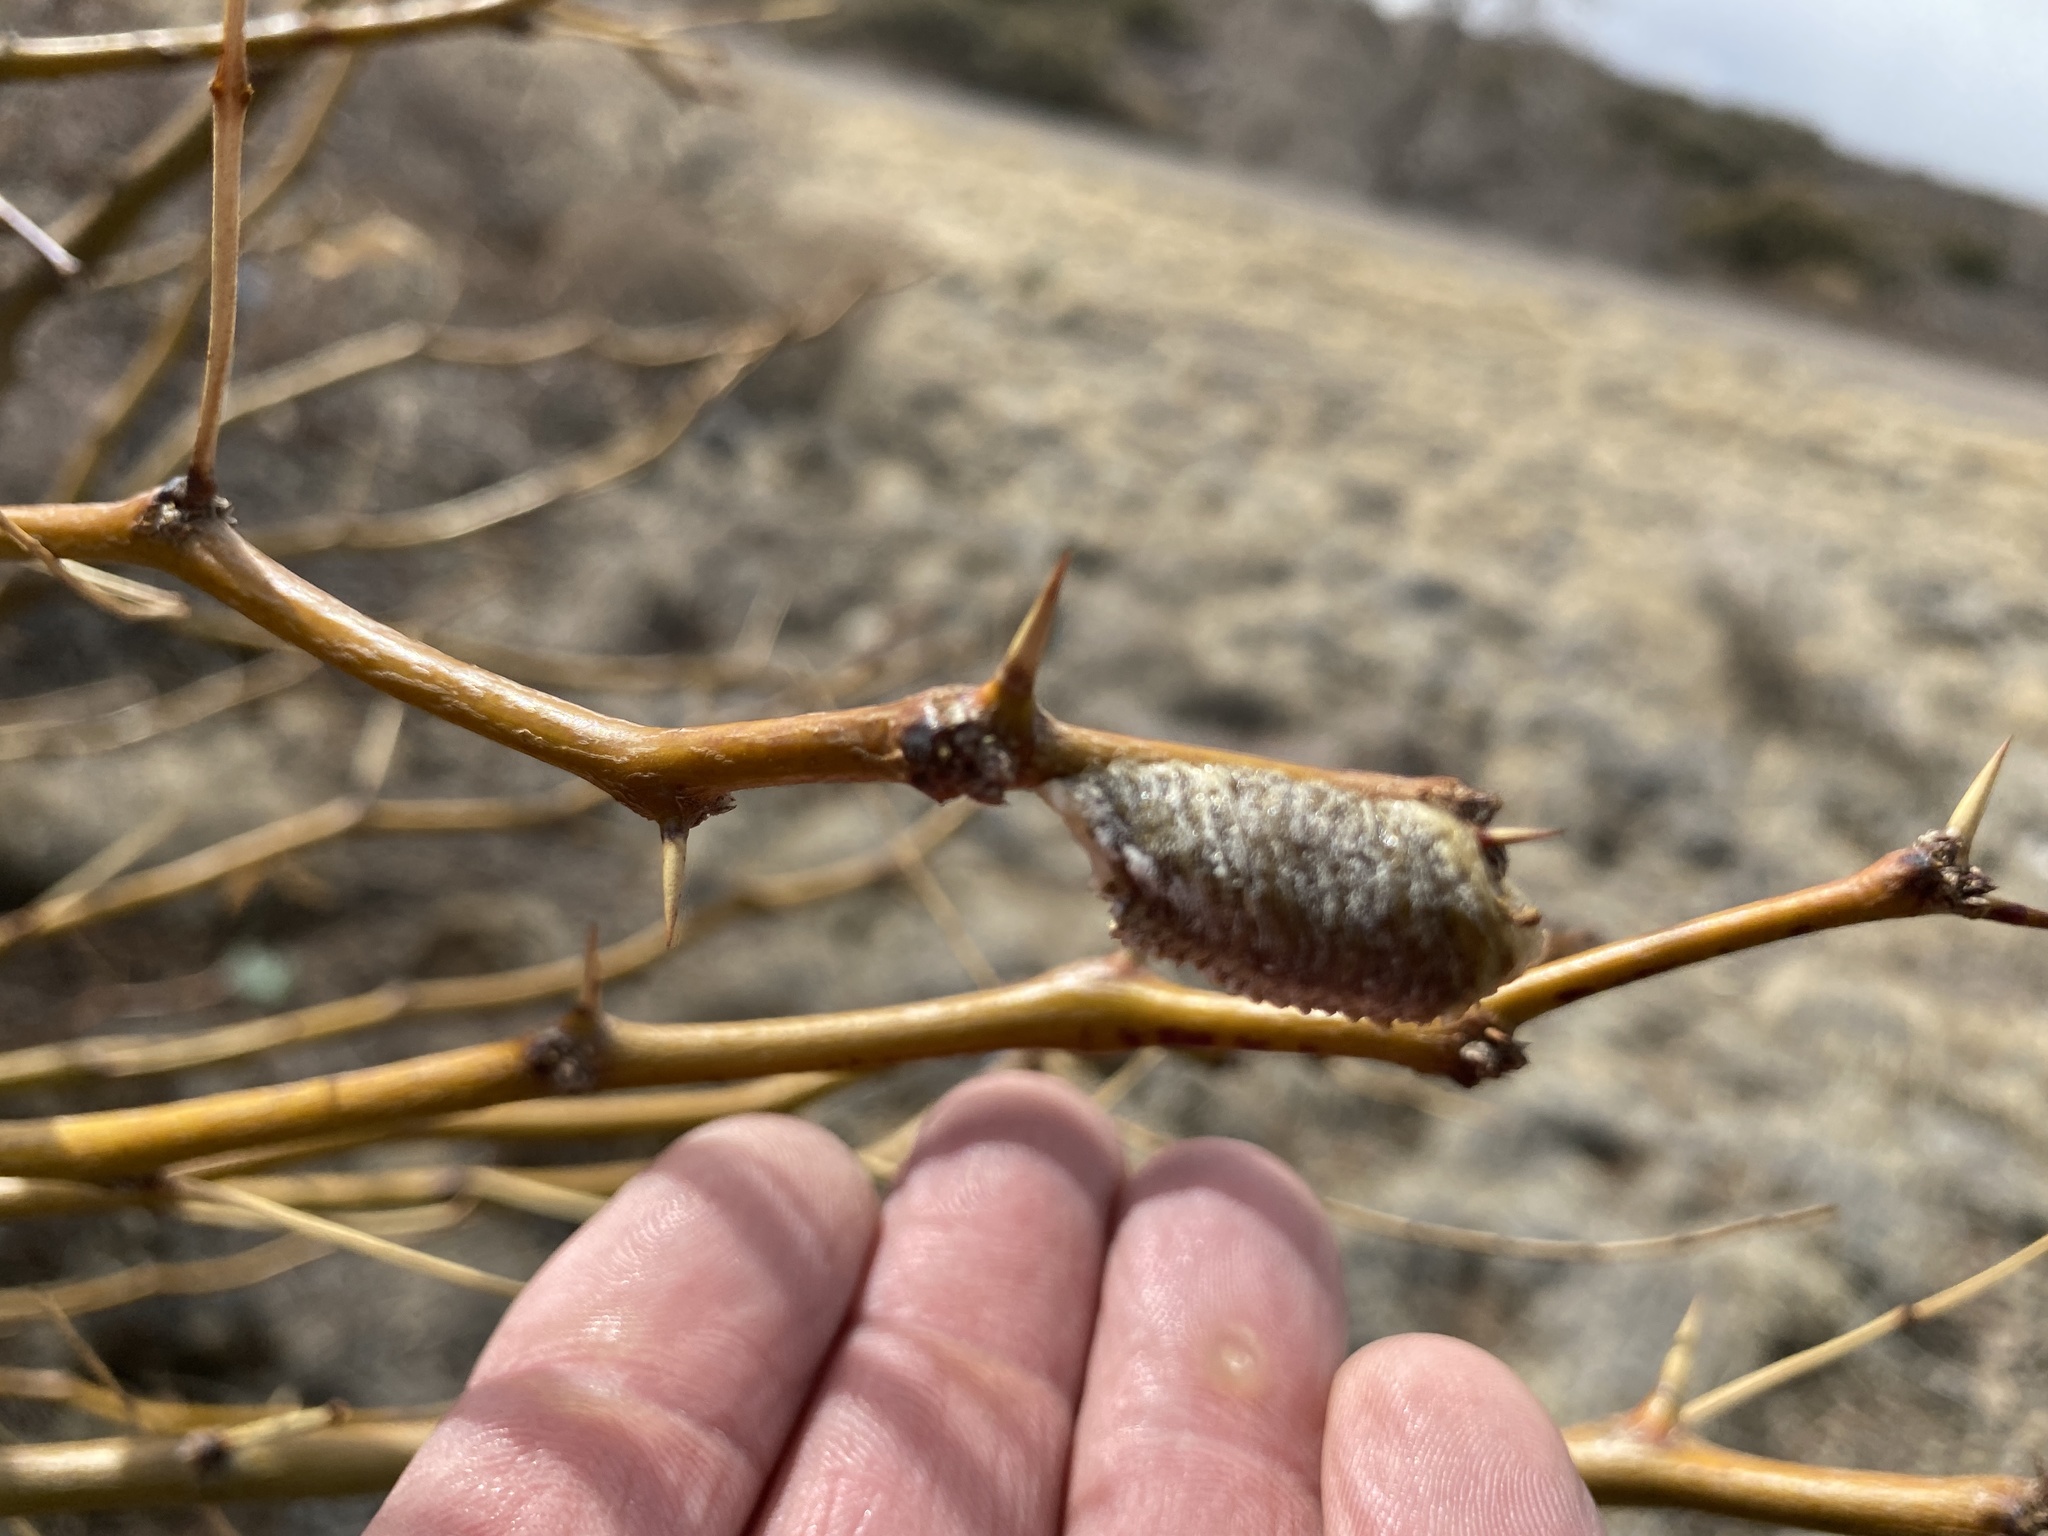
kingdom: Animalia
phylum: Arthropoda
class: Insecta
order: Mantodea
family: Mantidae
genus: Stagmomantis
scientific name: Stagmomantis limbata
